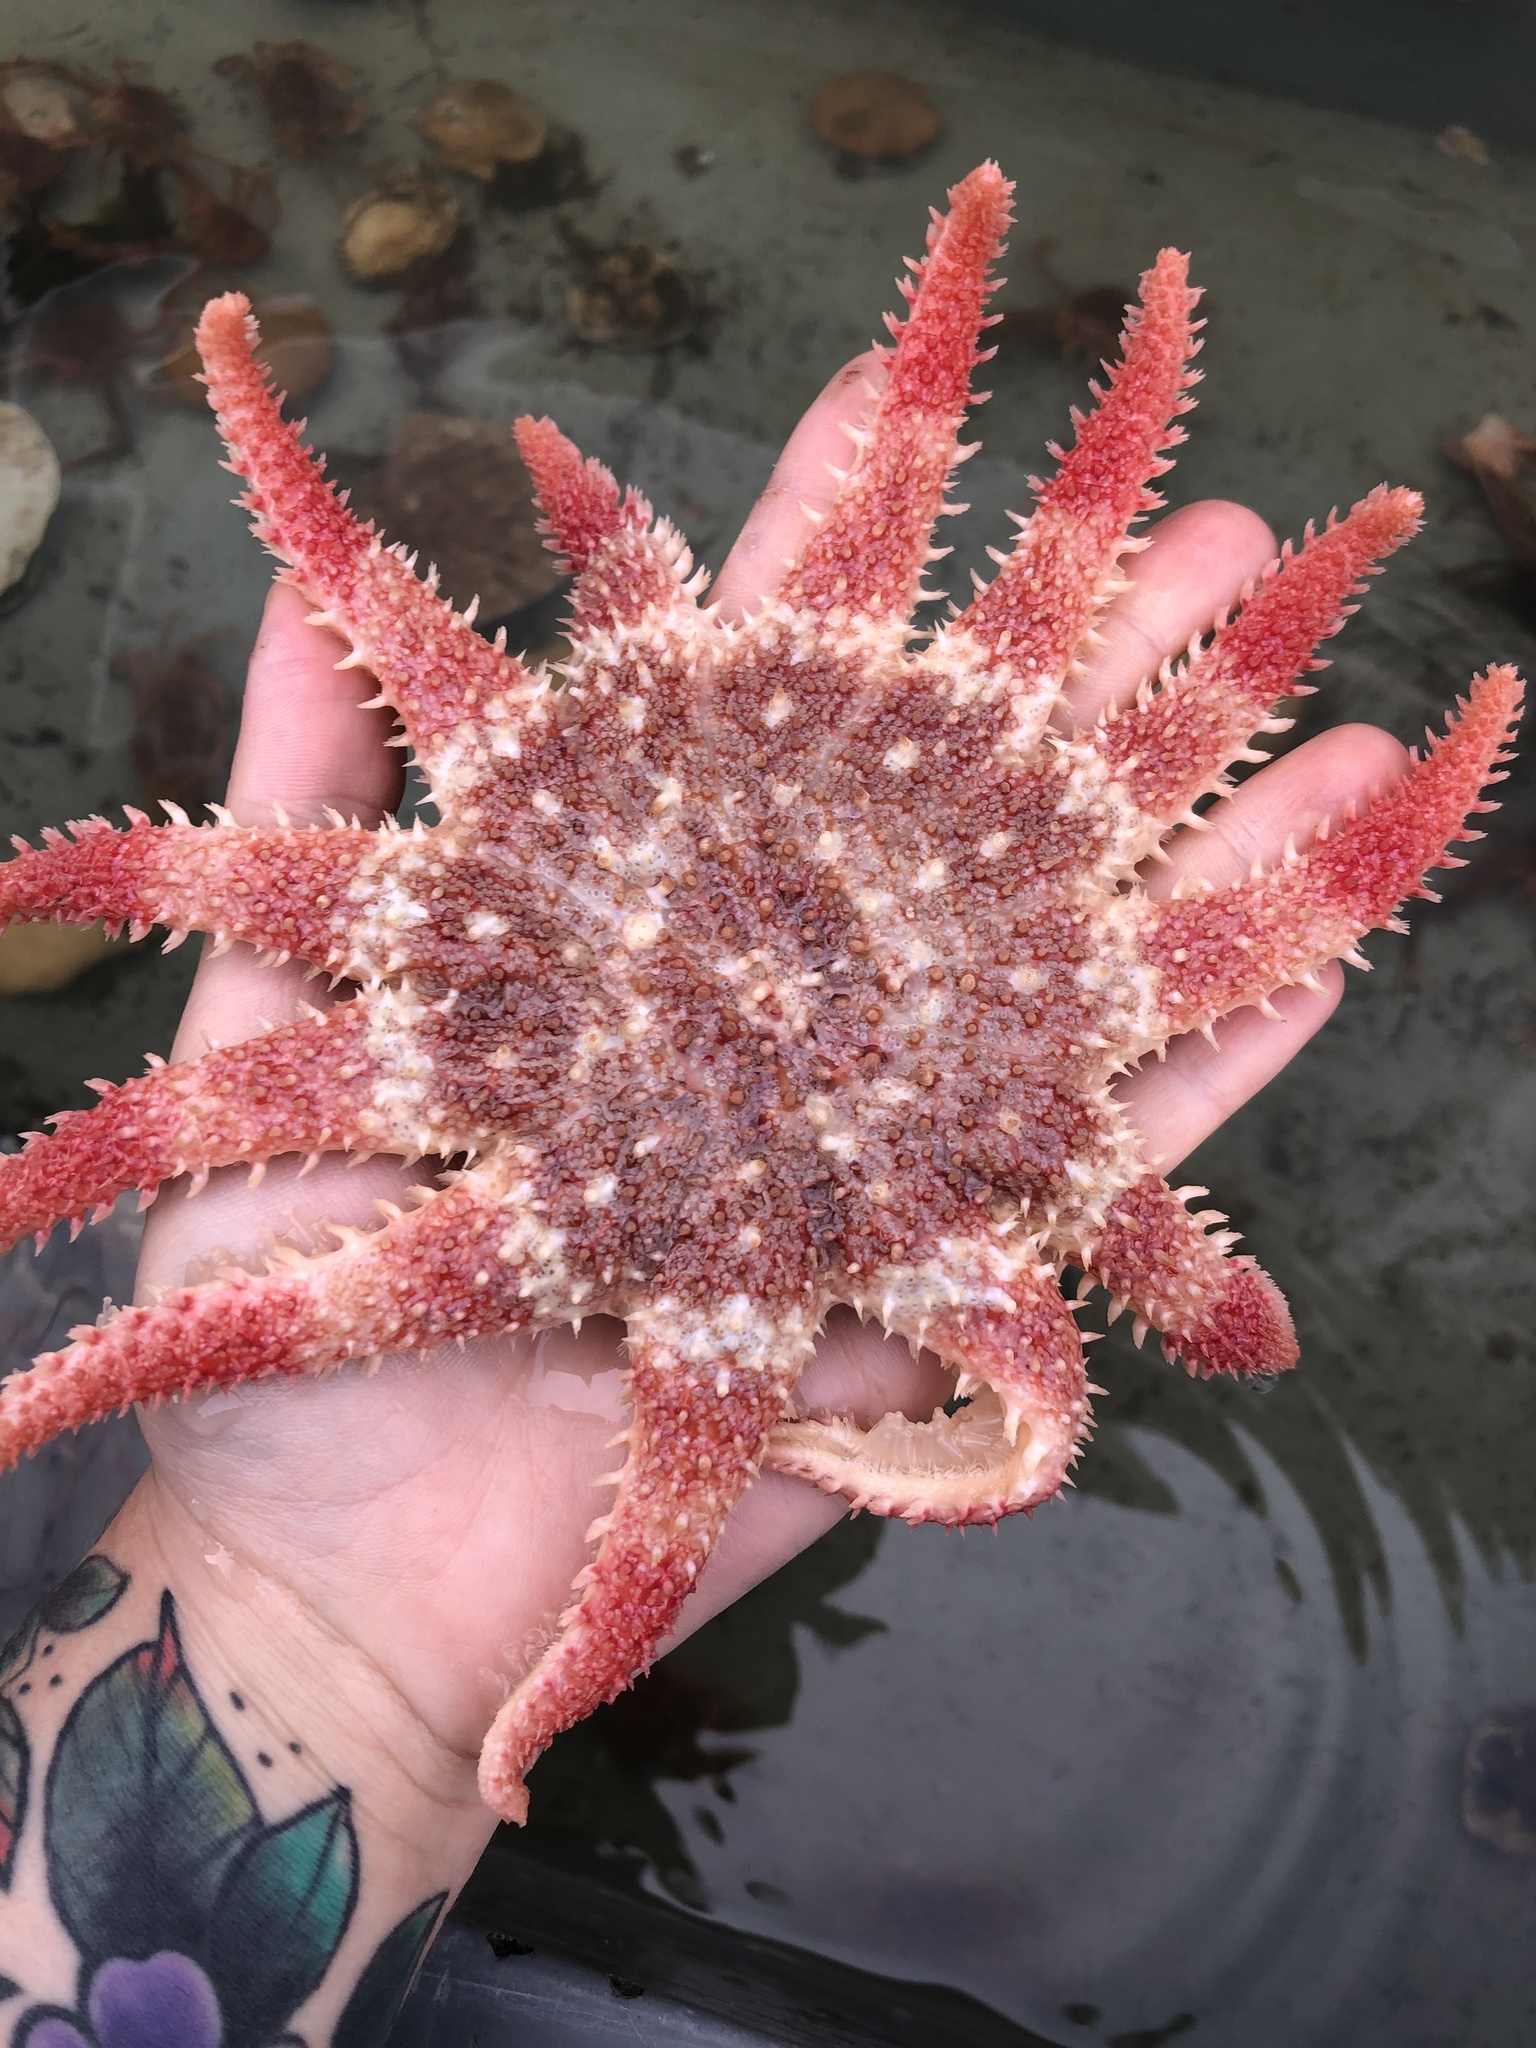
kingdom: Animalia
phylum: Echinodermata
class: Asteroidea
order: Valvatida
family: Solasteridae
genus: Crossaster
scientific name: Crossaster papposus
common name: Common sun star
